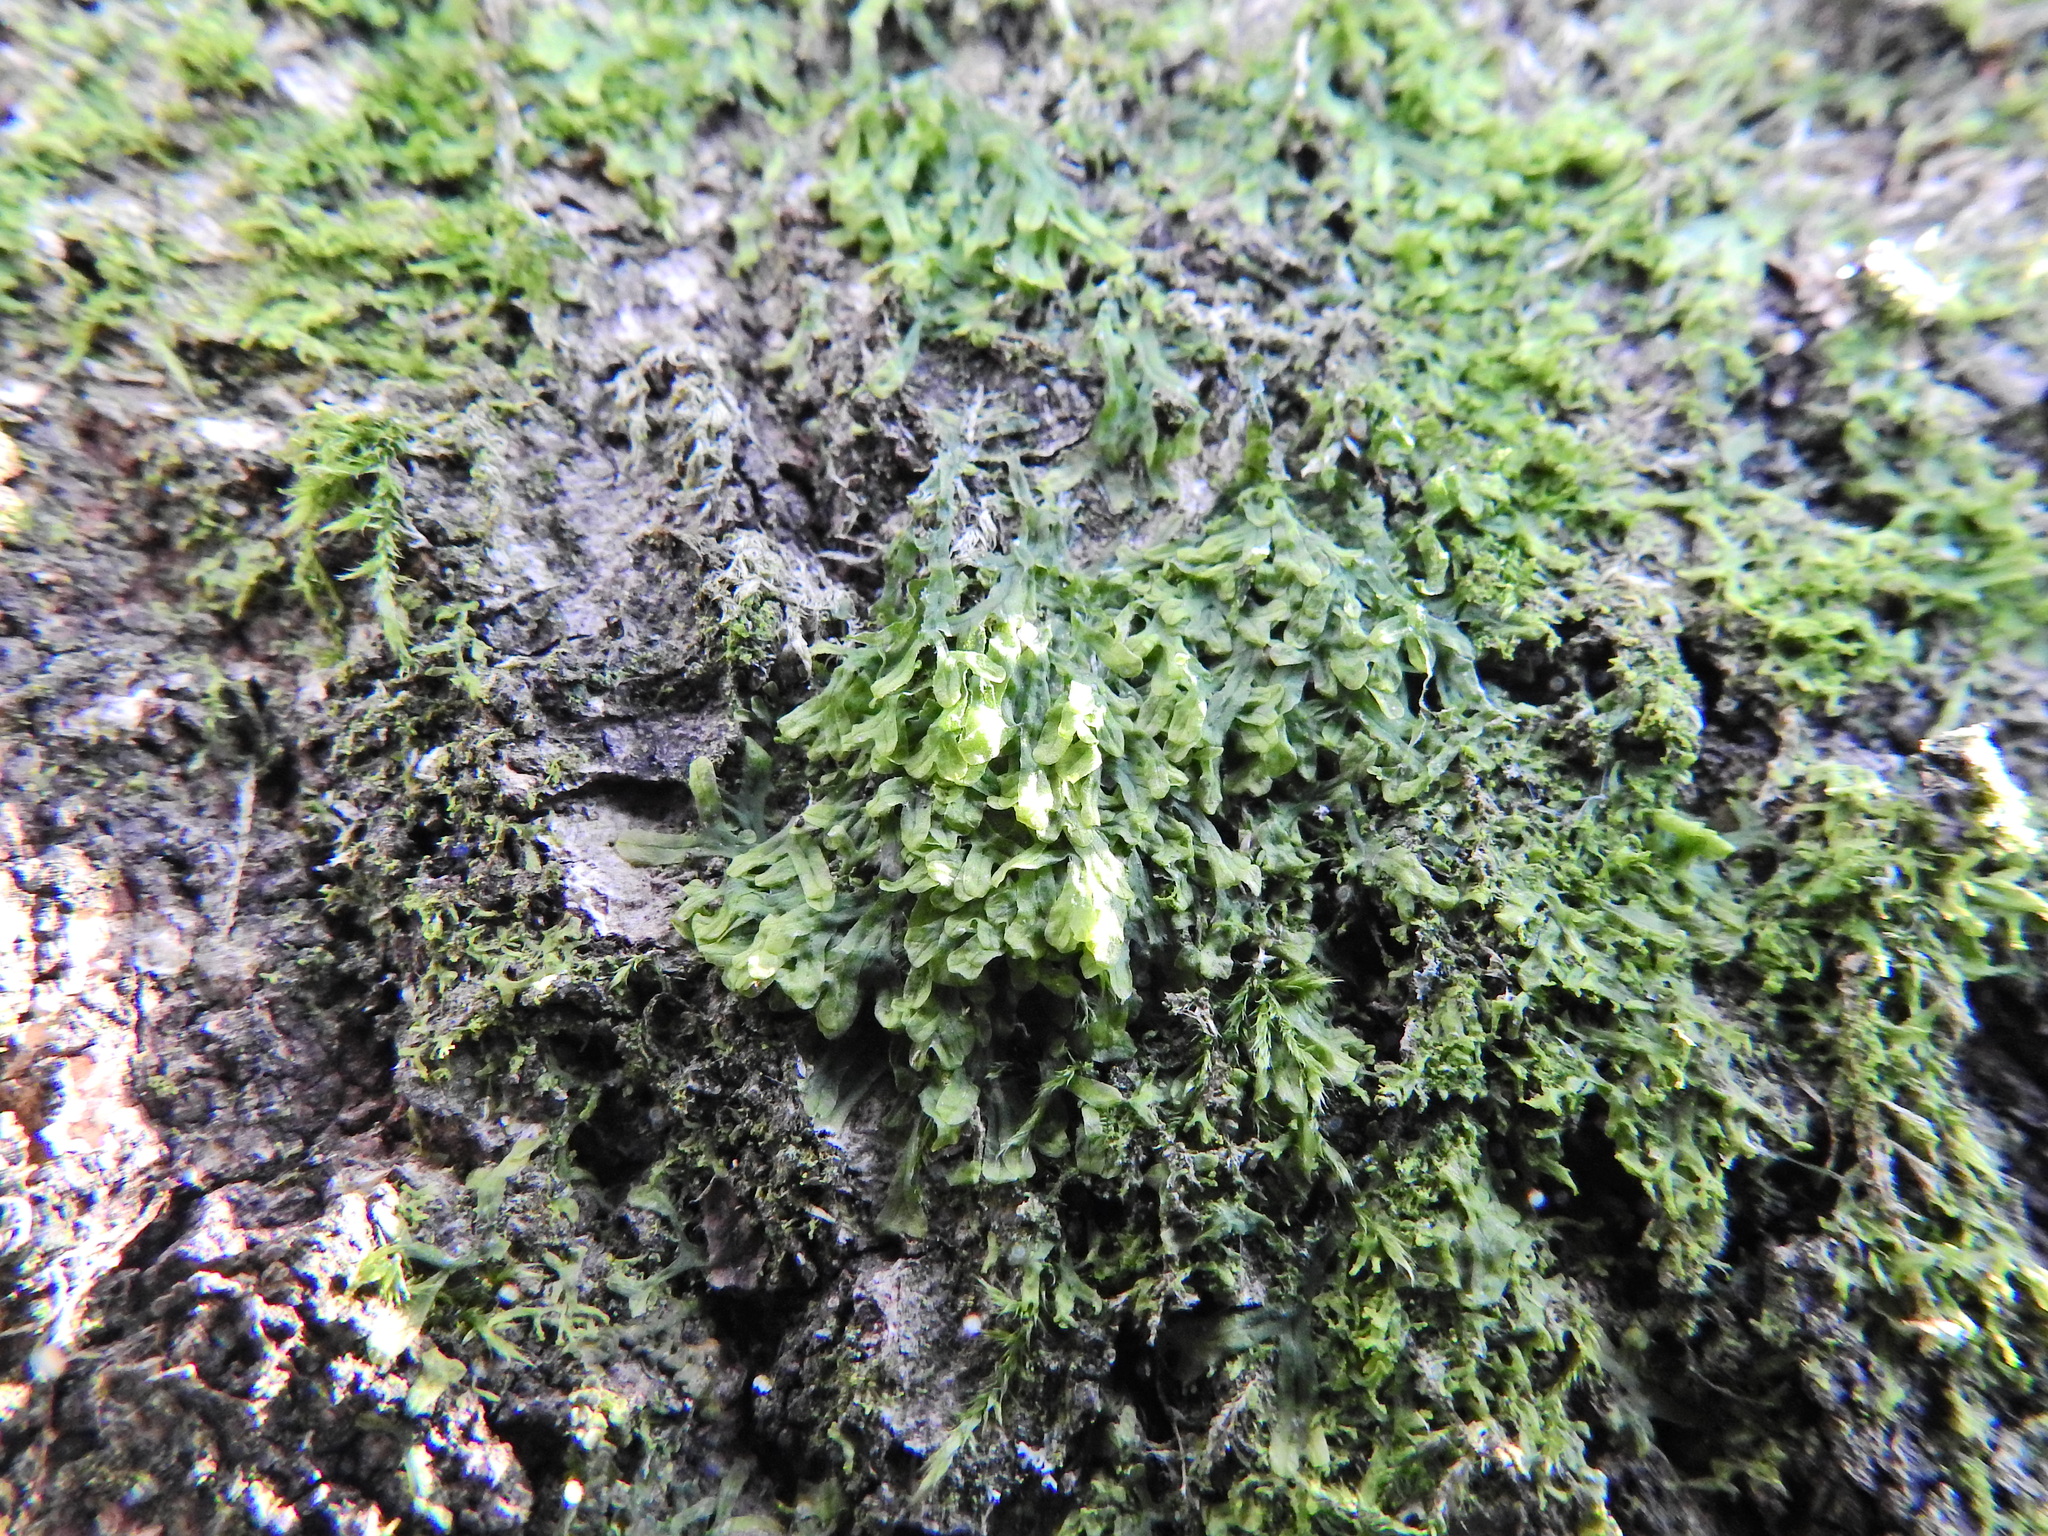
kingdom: Plantae
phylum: Marchantiophyta
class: Jungermanniopsida
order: Metzgeriales
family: Metzgeriaceae
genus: Metzgeria
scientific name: Metzgeria furcata
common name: Forked veilwort
